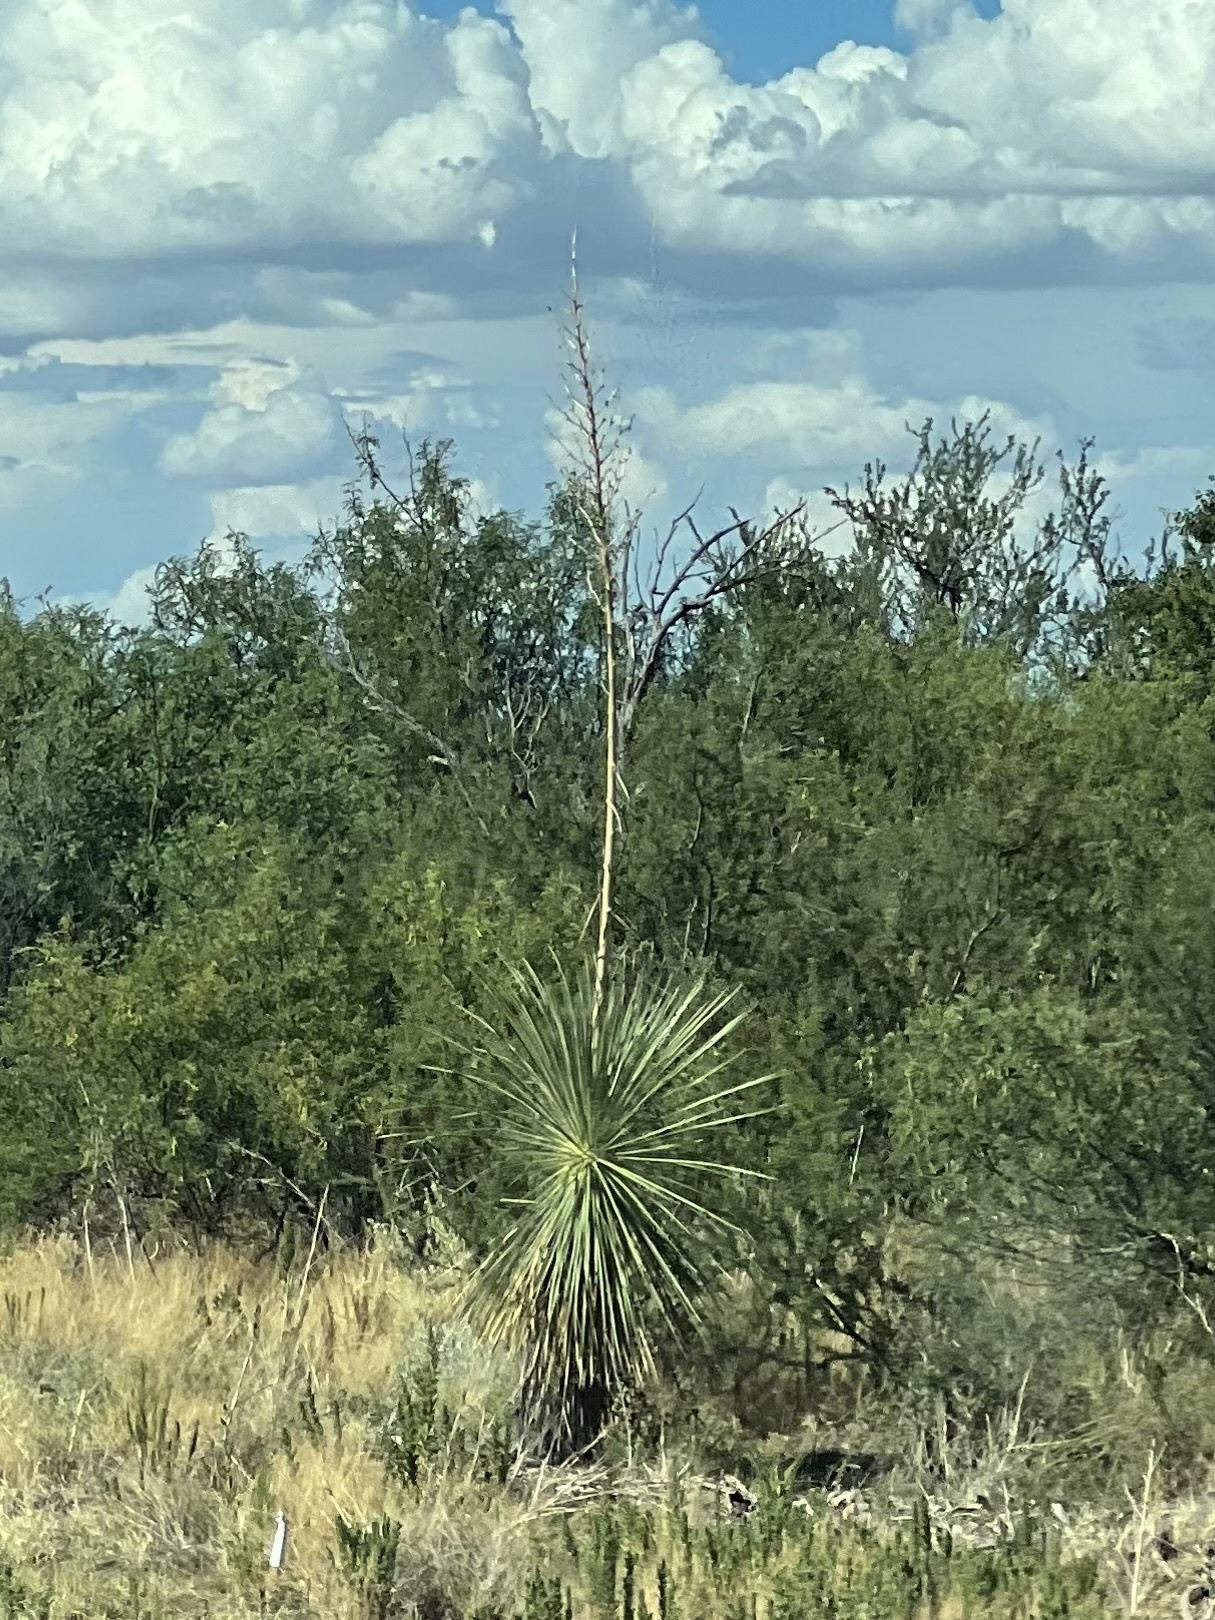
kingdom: Plantae
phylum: Tracheophyta
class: Liliopsida
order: Asparagales
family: Asparagaceae
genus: Yucca
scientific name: Yucca elata
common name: Palmella
